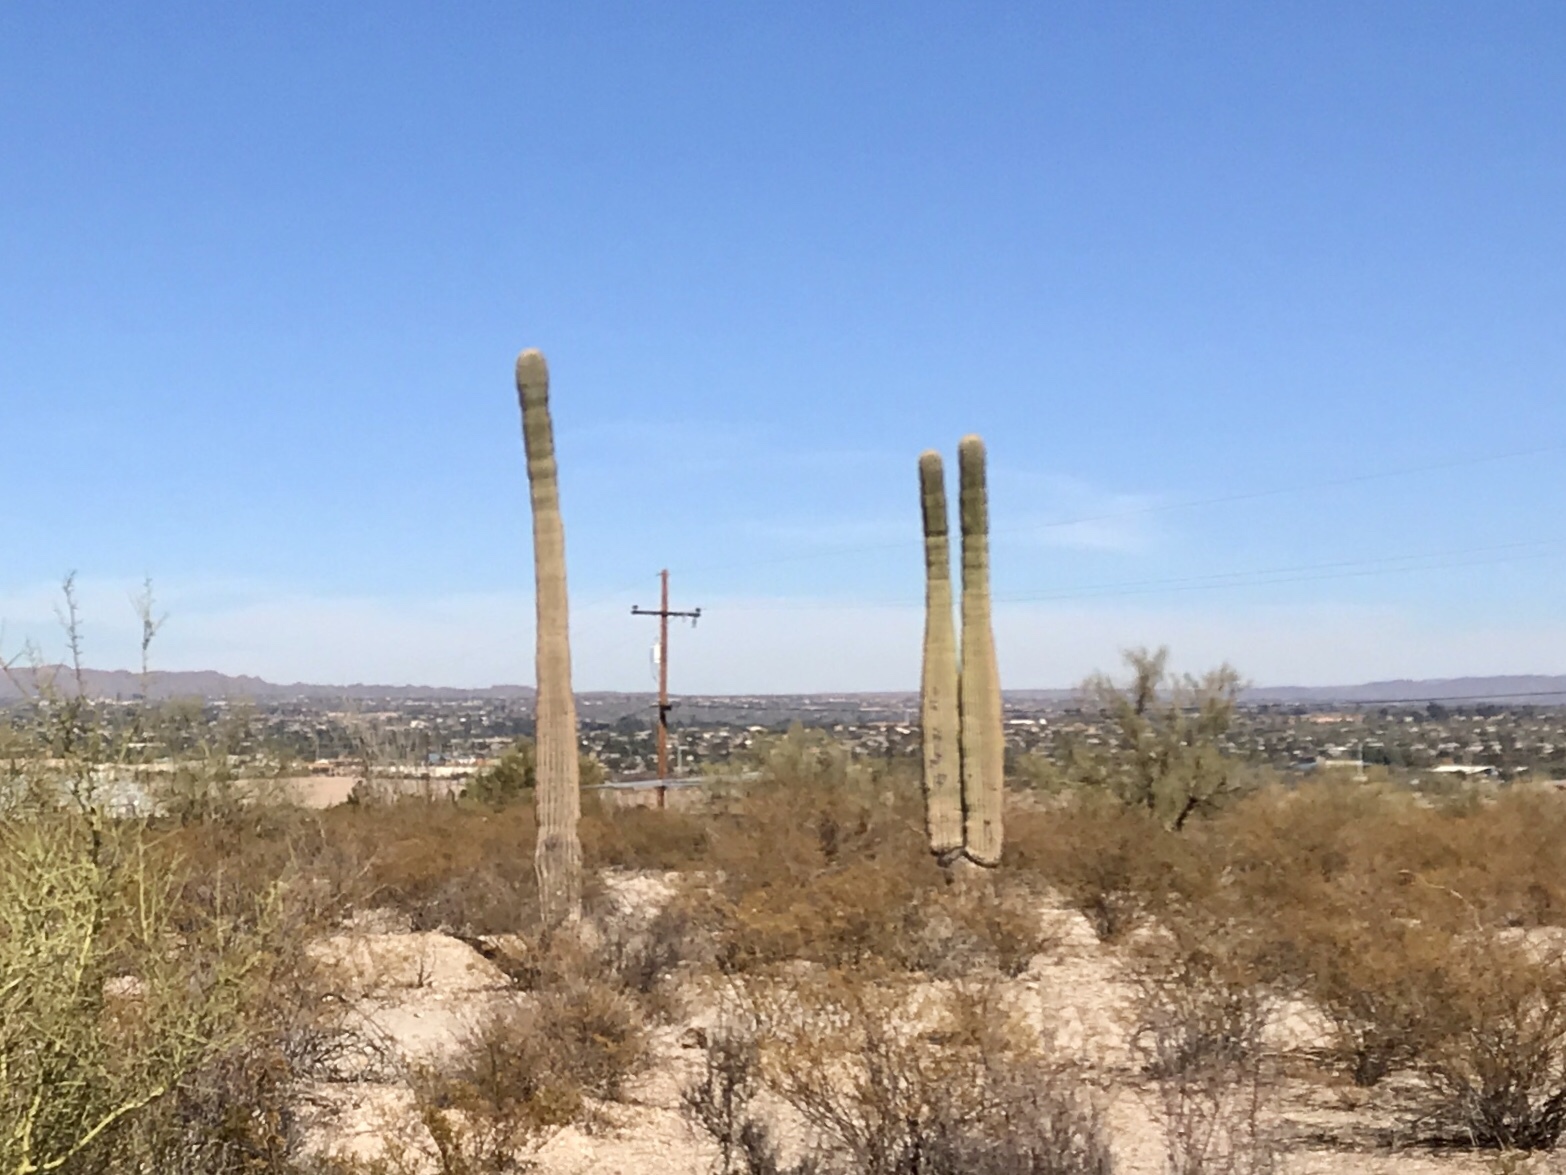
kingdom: Plantae
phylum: Tracheophyta
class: Magnoliopsida
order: Caryophyllales
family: Cactaceae
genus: Carnegiea
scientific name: Carnegiea gigantea
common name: Saguaro
